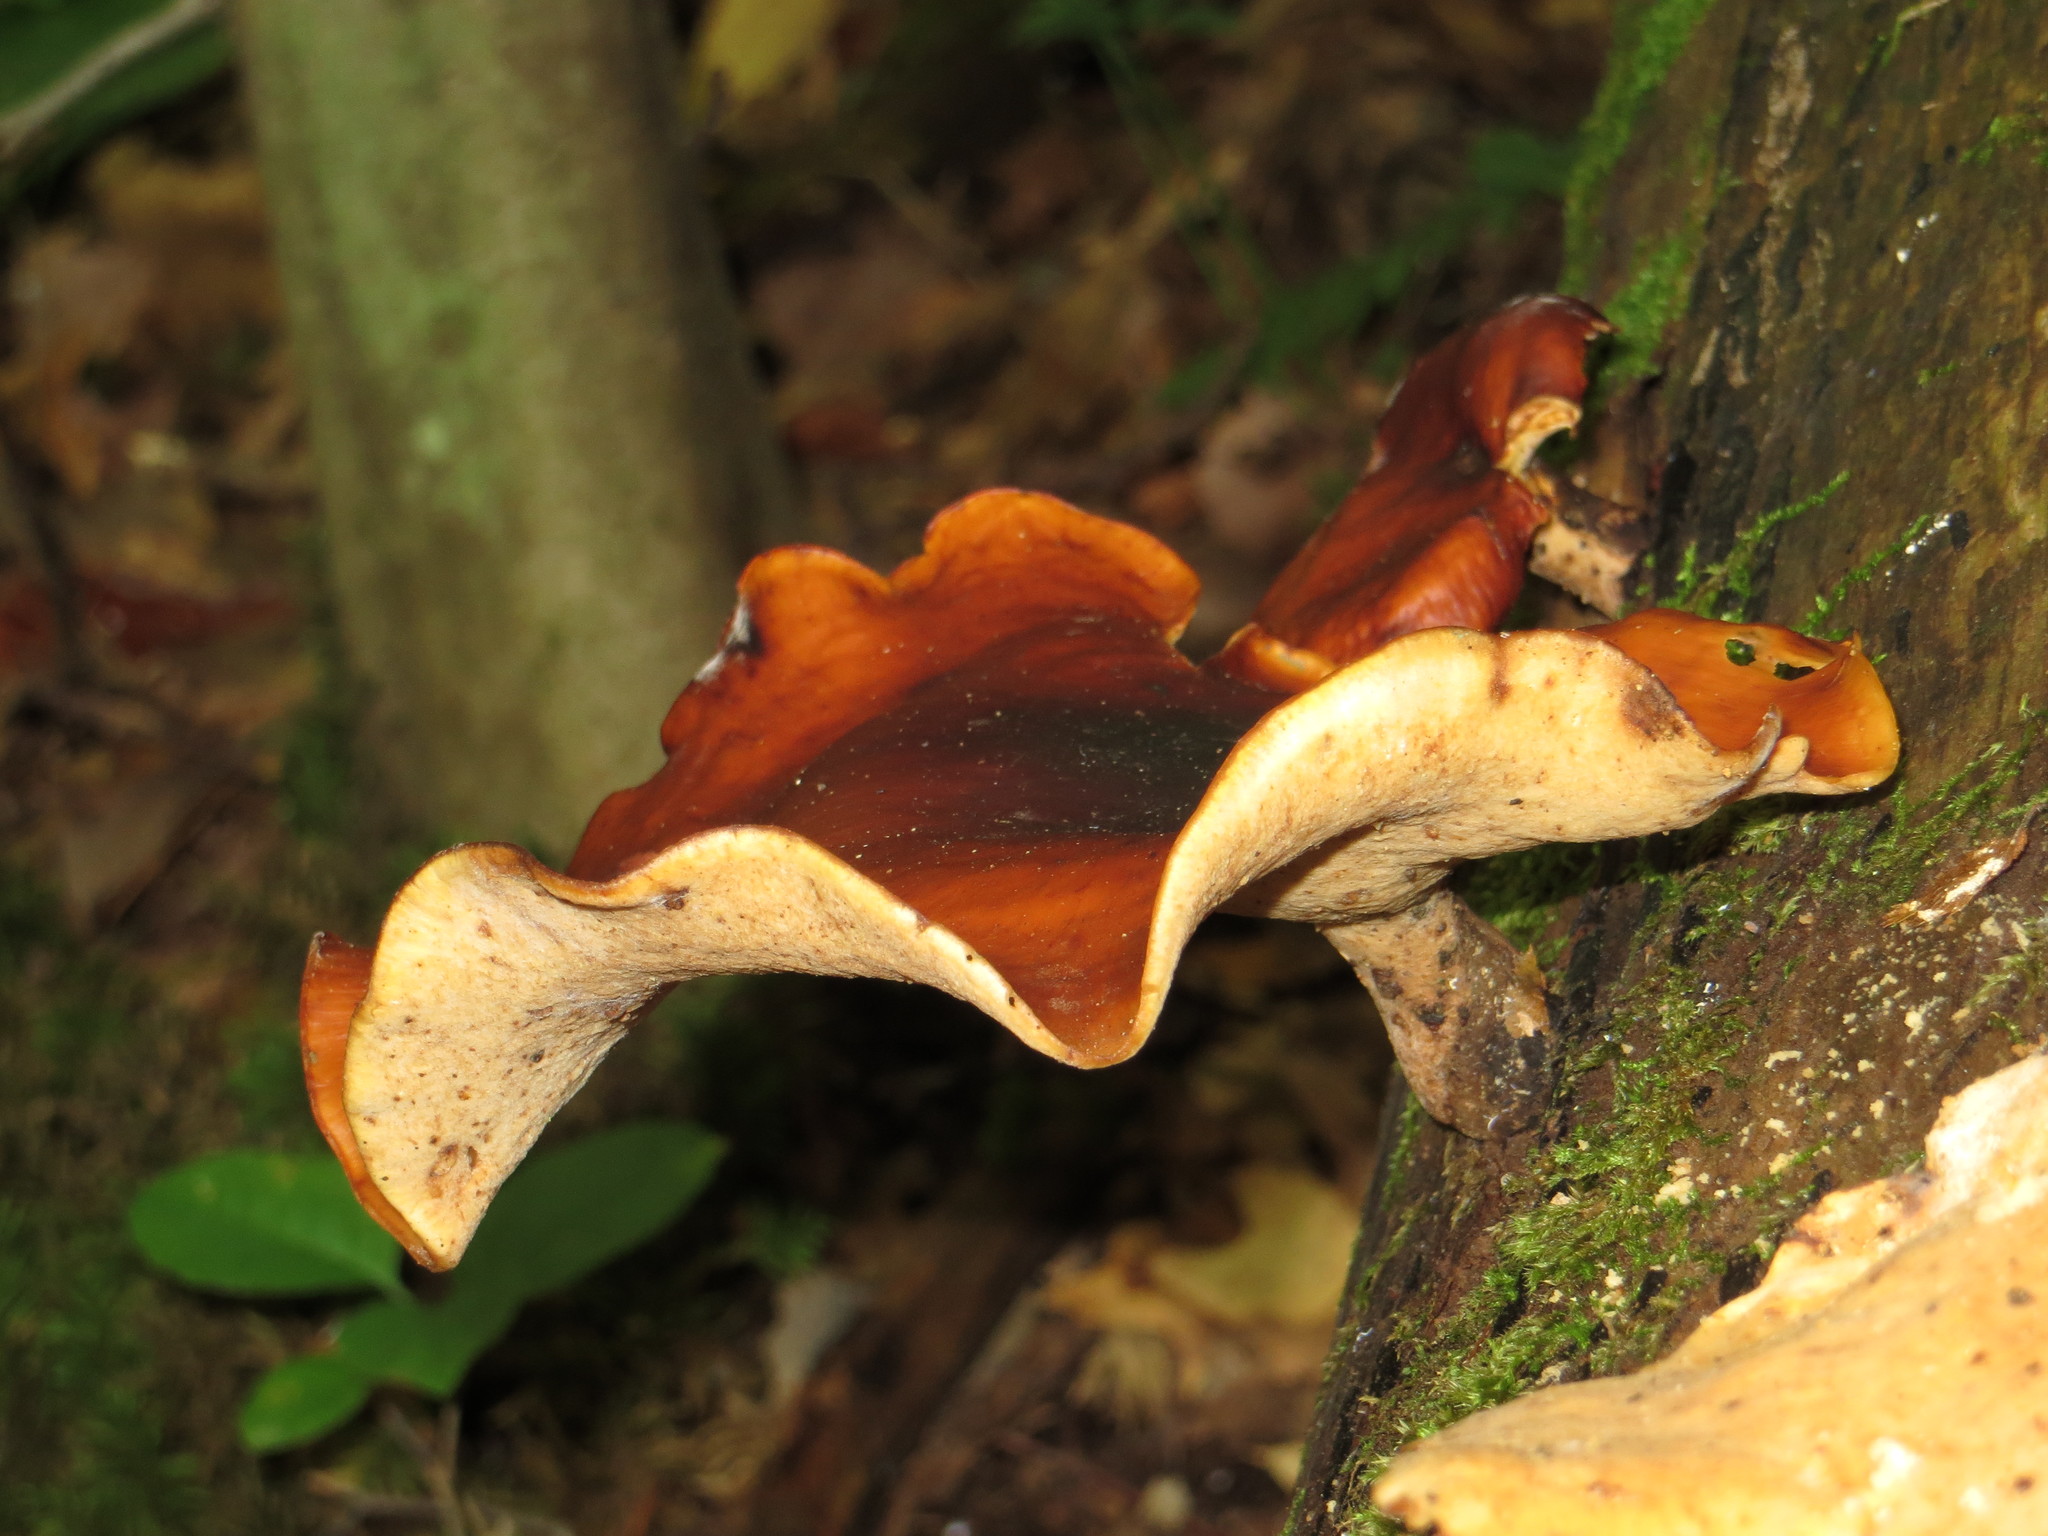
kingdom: Fungi
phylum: Basidiomycota
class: Agaricomycetes
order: Polyporales
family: Polyporaceae
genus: Picipes
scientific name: Picipes badius
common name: Bay polypore
